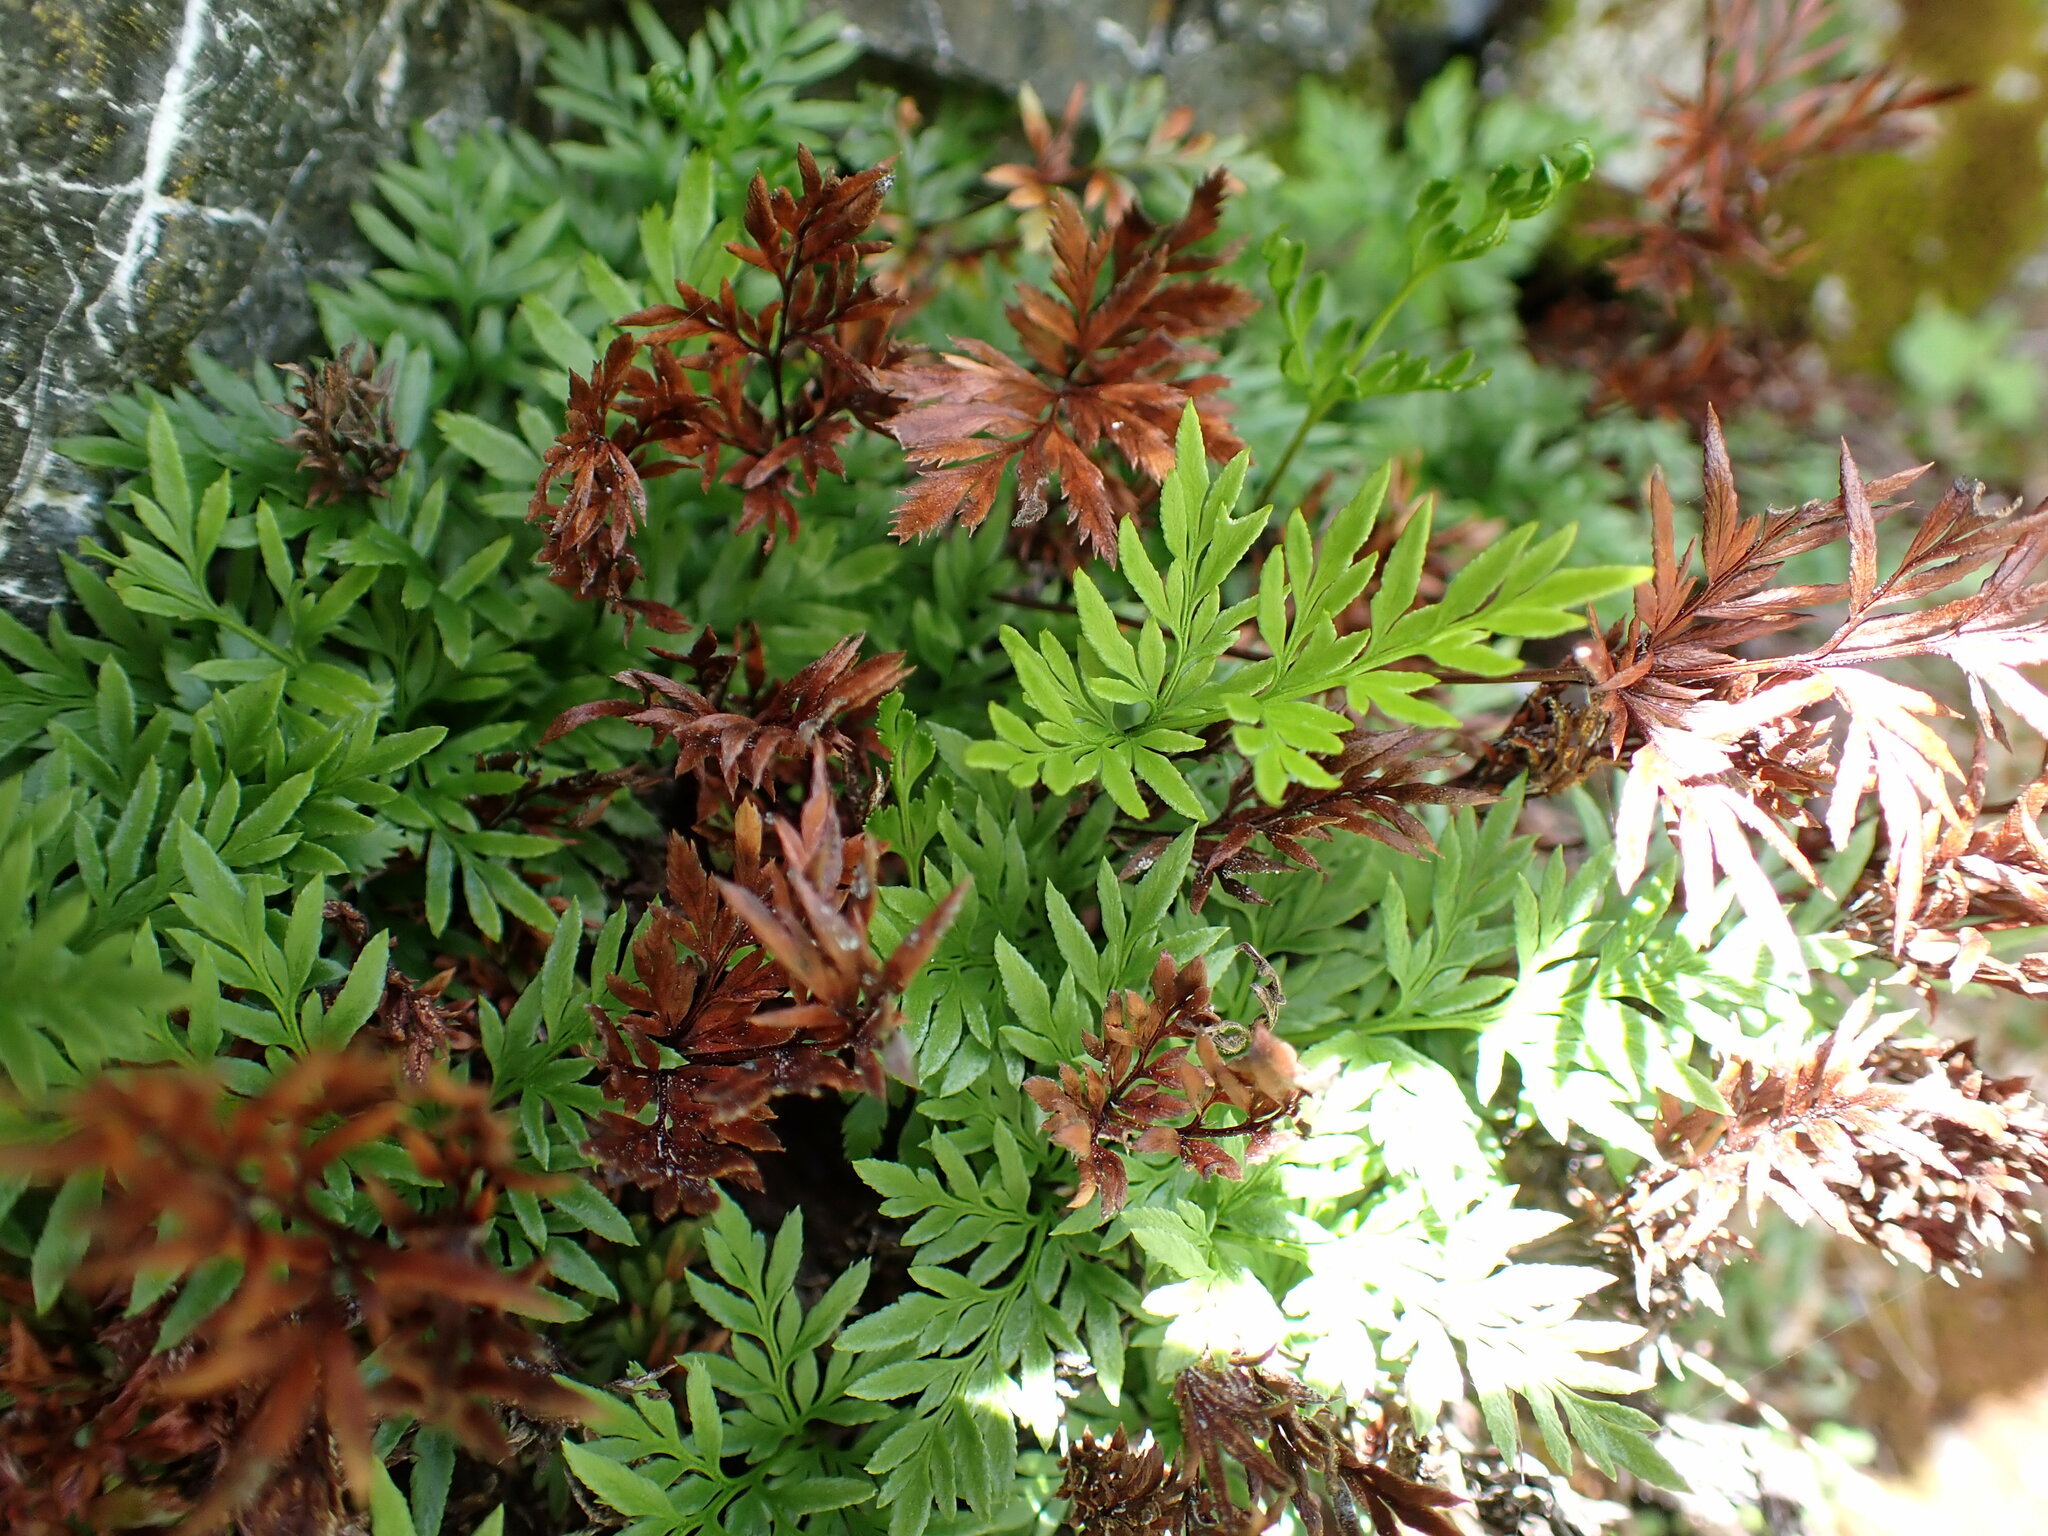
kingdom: Plantae
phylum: Tracheophyta
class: Polypodiopsida
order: Polypodiales
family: Pteridaceae
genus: Aspidotis
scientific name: Aspidotis densa
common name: Indian's dream
